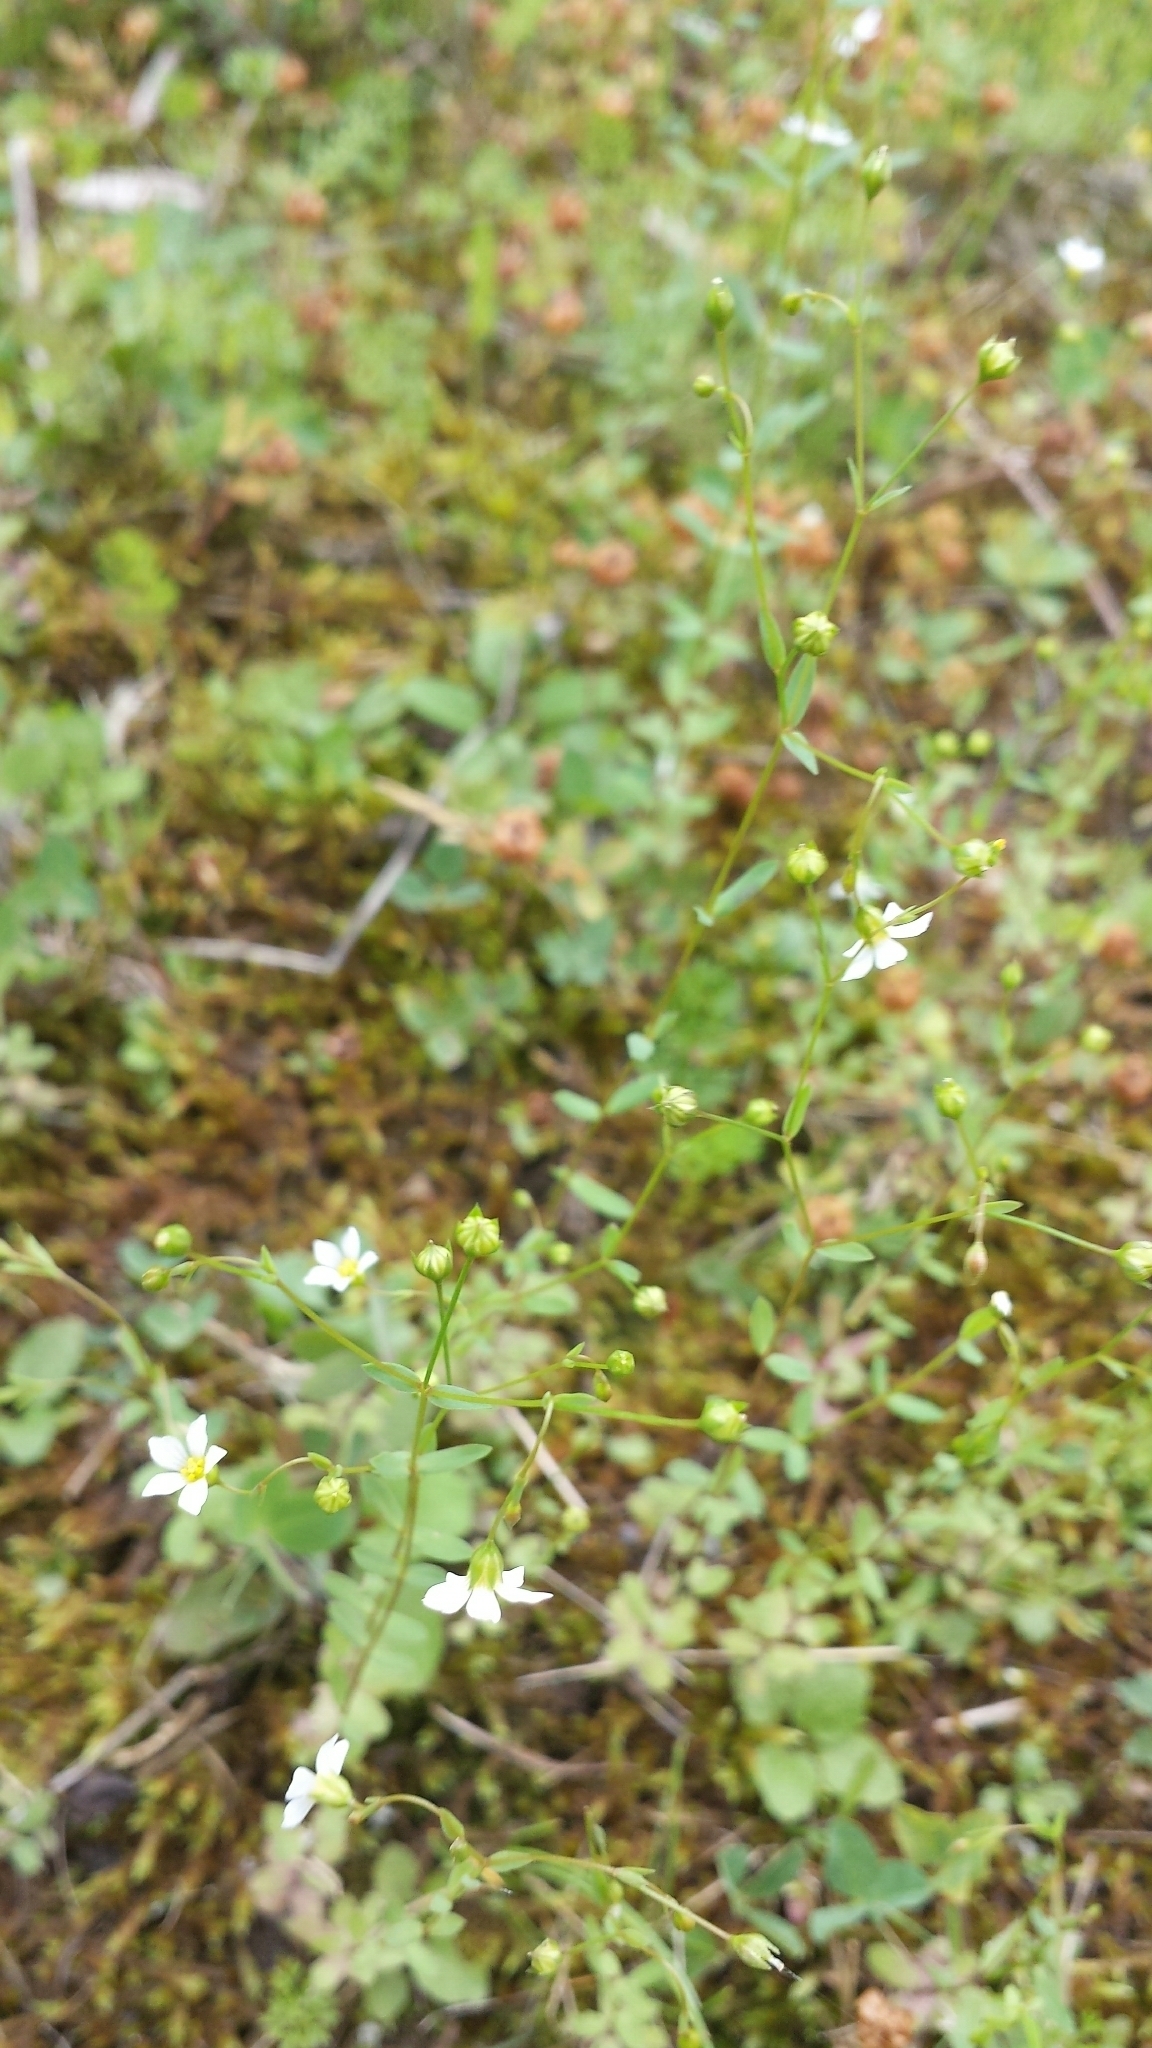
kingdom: Plantae
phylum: Tracheophyta
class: Magnoliopsida
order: Malpighiales
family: Linaceae
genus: Linum
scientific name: Linum catharticum
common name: Fairy flax
